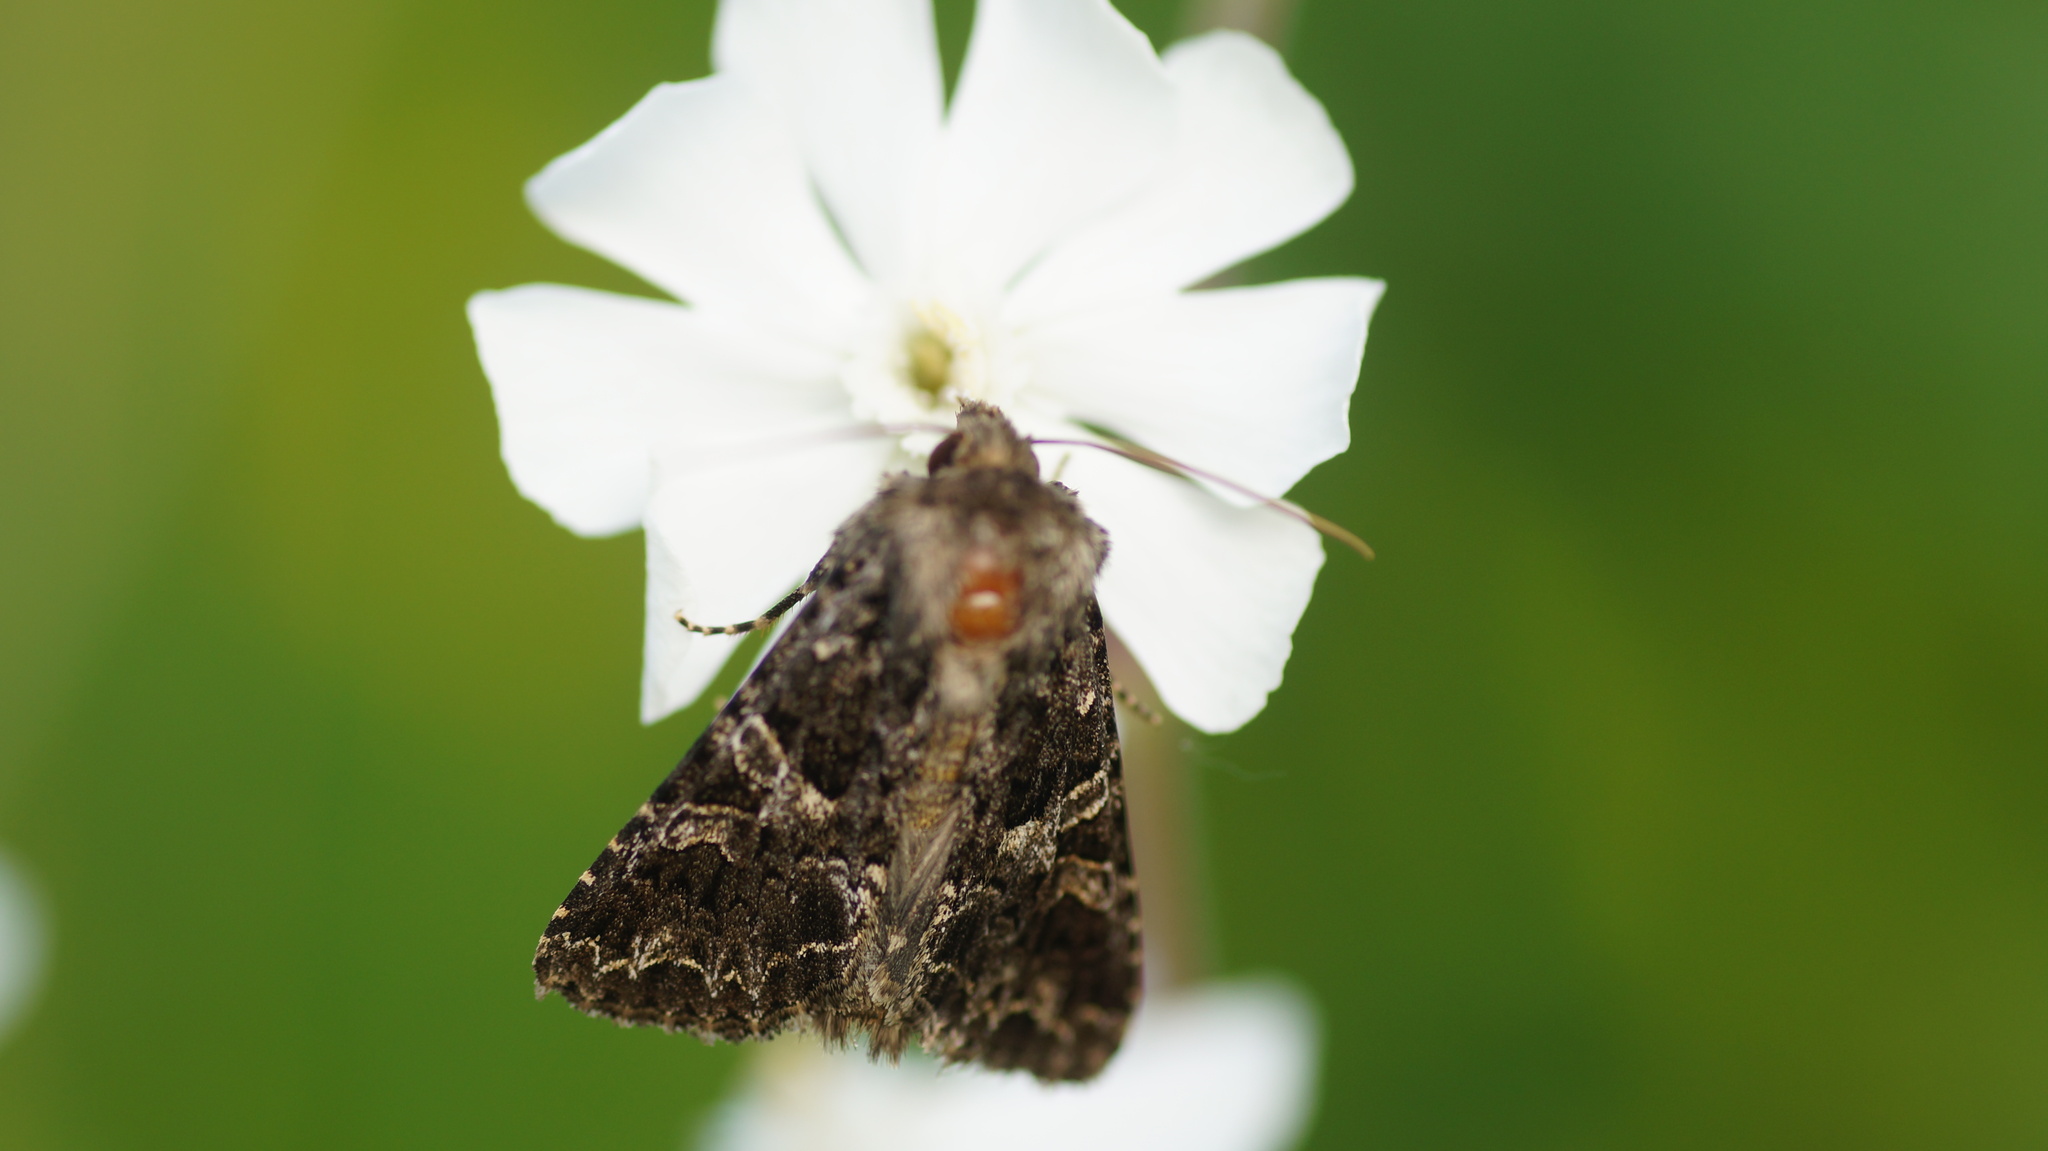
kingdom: Animalia
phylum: Arthropoda
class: Insecta
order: Lepidoptera
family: Noctuidae
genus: Hadena
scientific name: Hadena capsincola
